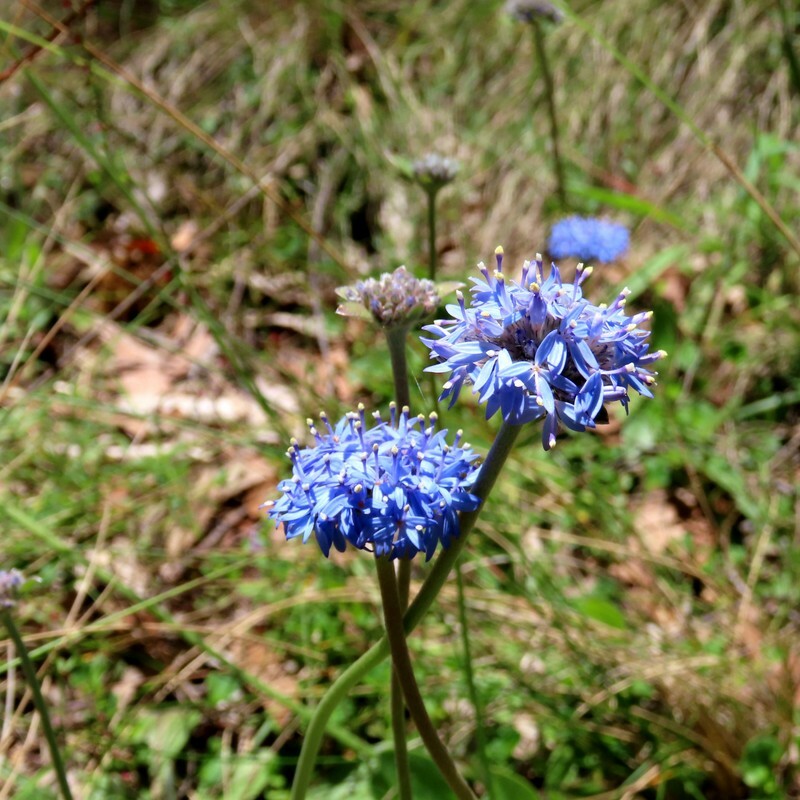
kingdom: Plantae
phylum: Tracheophyta
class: Magnoliopsida
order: Asterales
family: Goodeniaceae
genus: Brunonia
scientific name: Brunonia australis
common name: Blue pincushion
